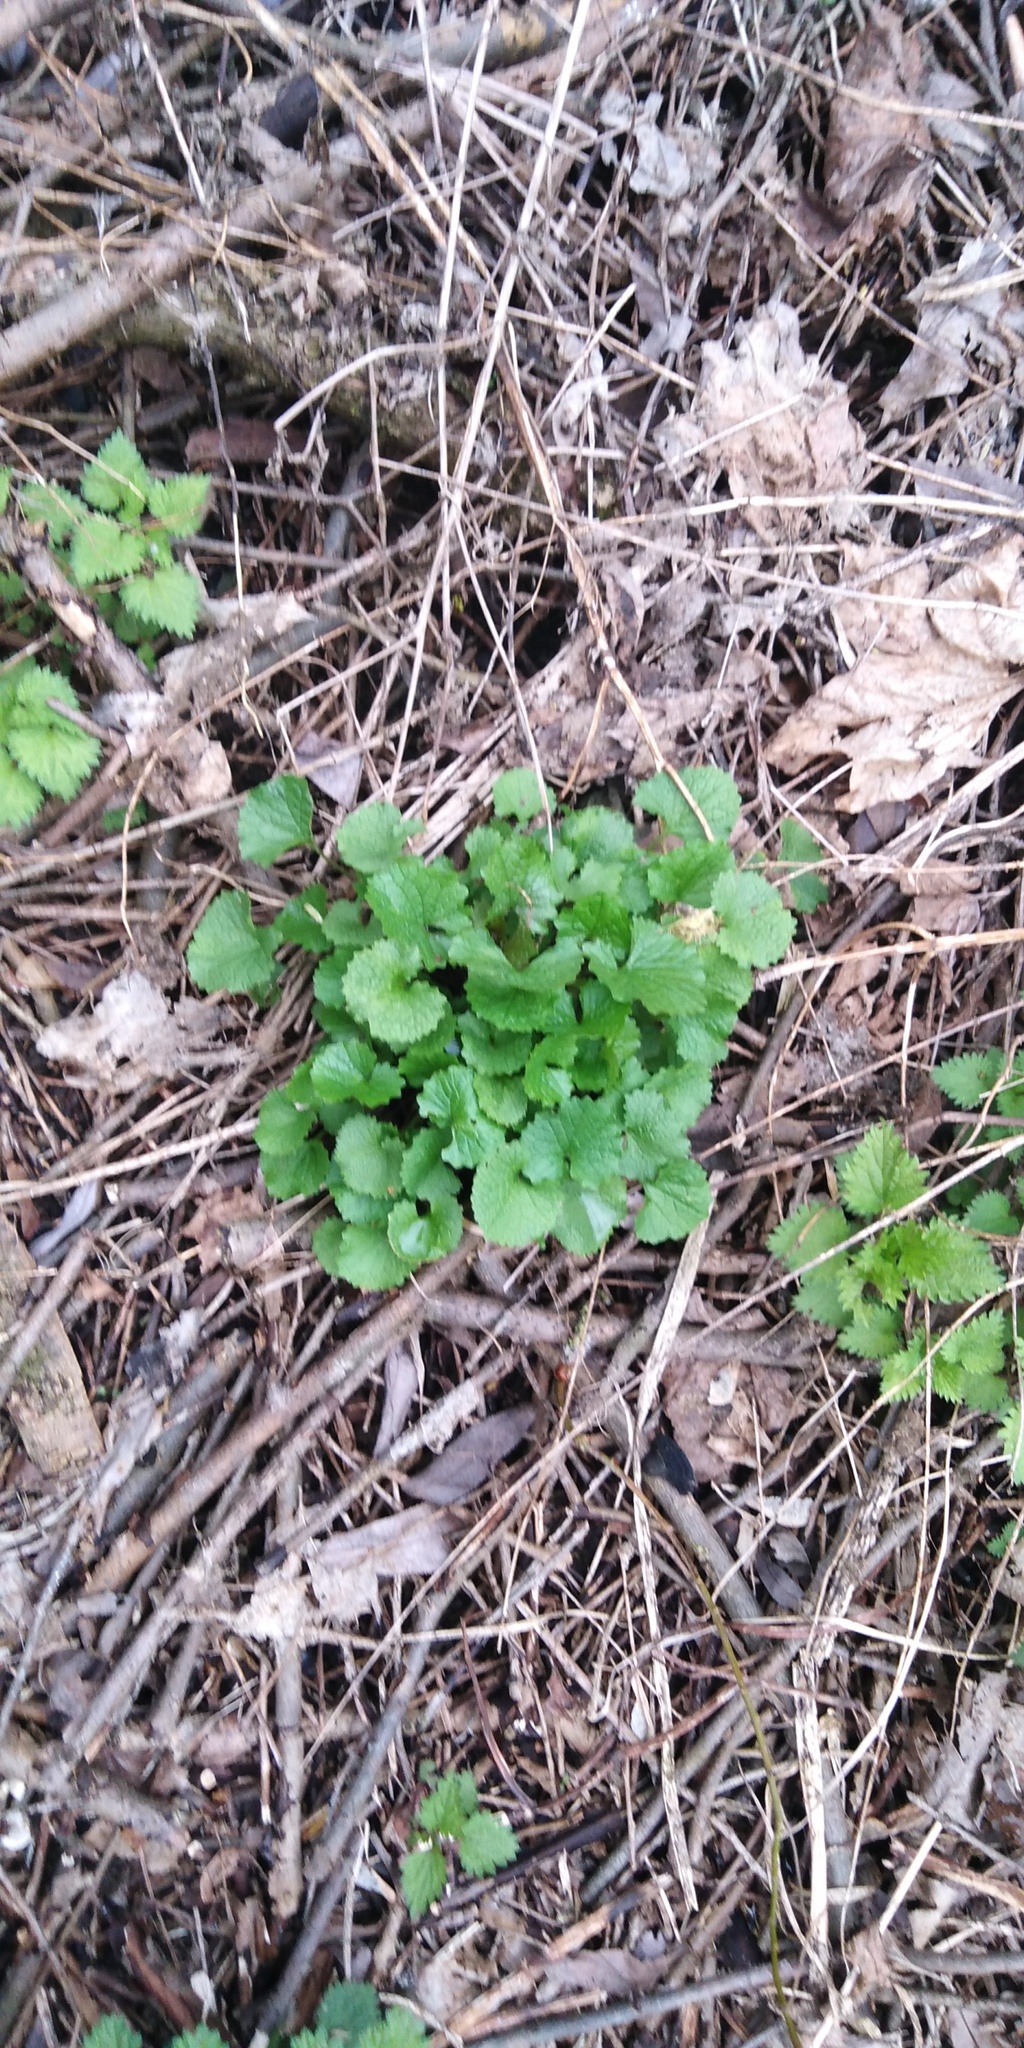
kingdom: Plantae
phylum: Tracheophyta
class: Magnoliopsida
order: Brassicales
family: Brassicaceae
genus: Alliaria
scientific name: Alliaria petiolata
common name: Garlic mustard
